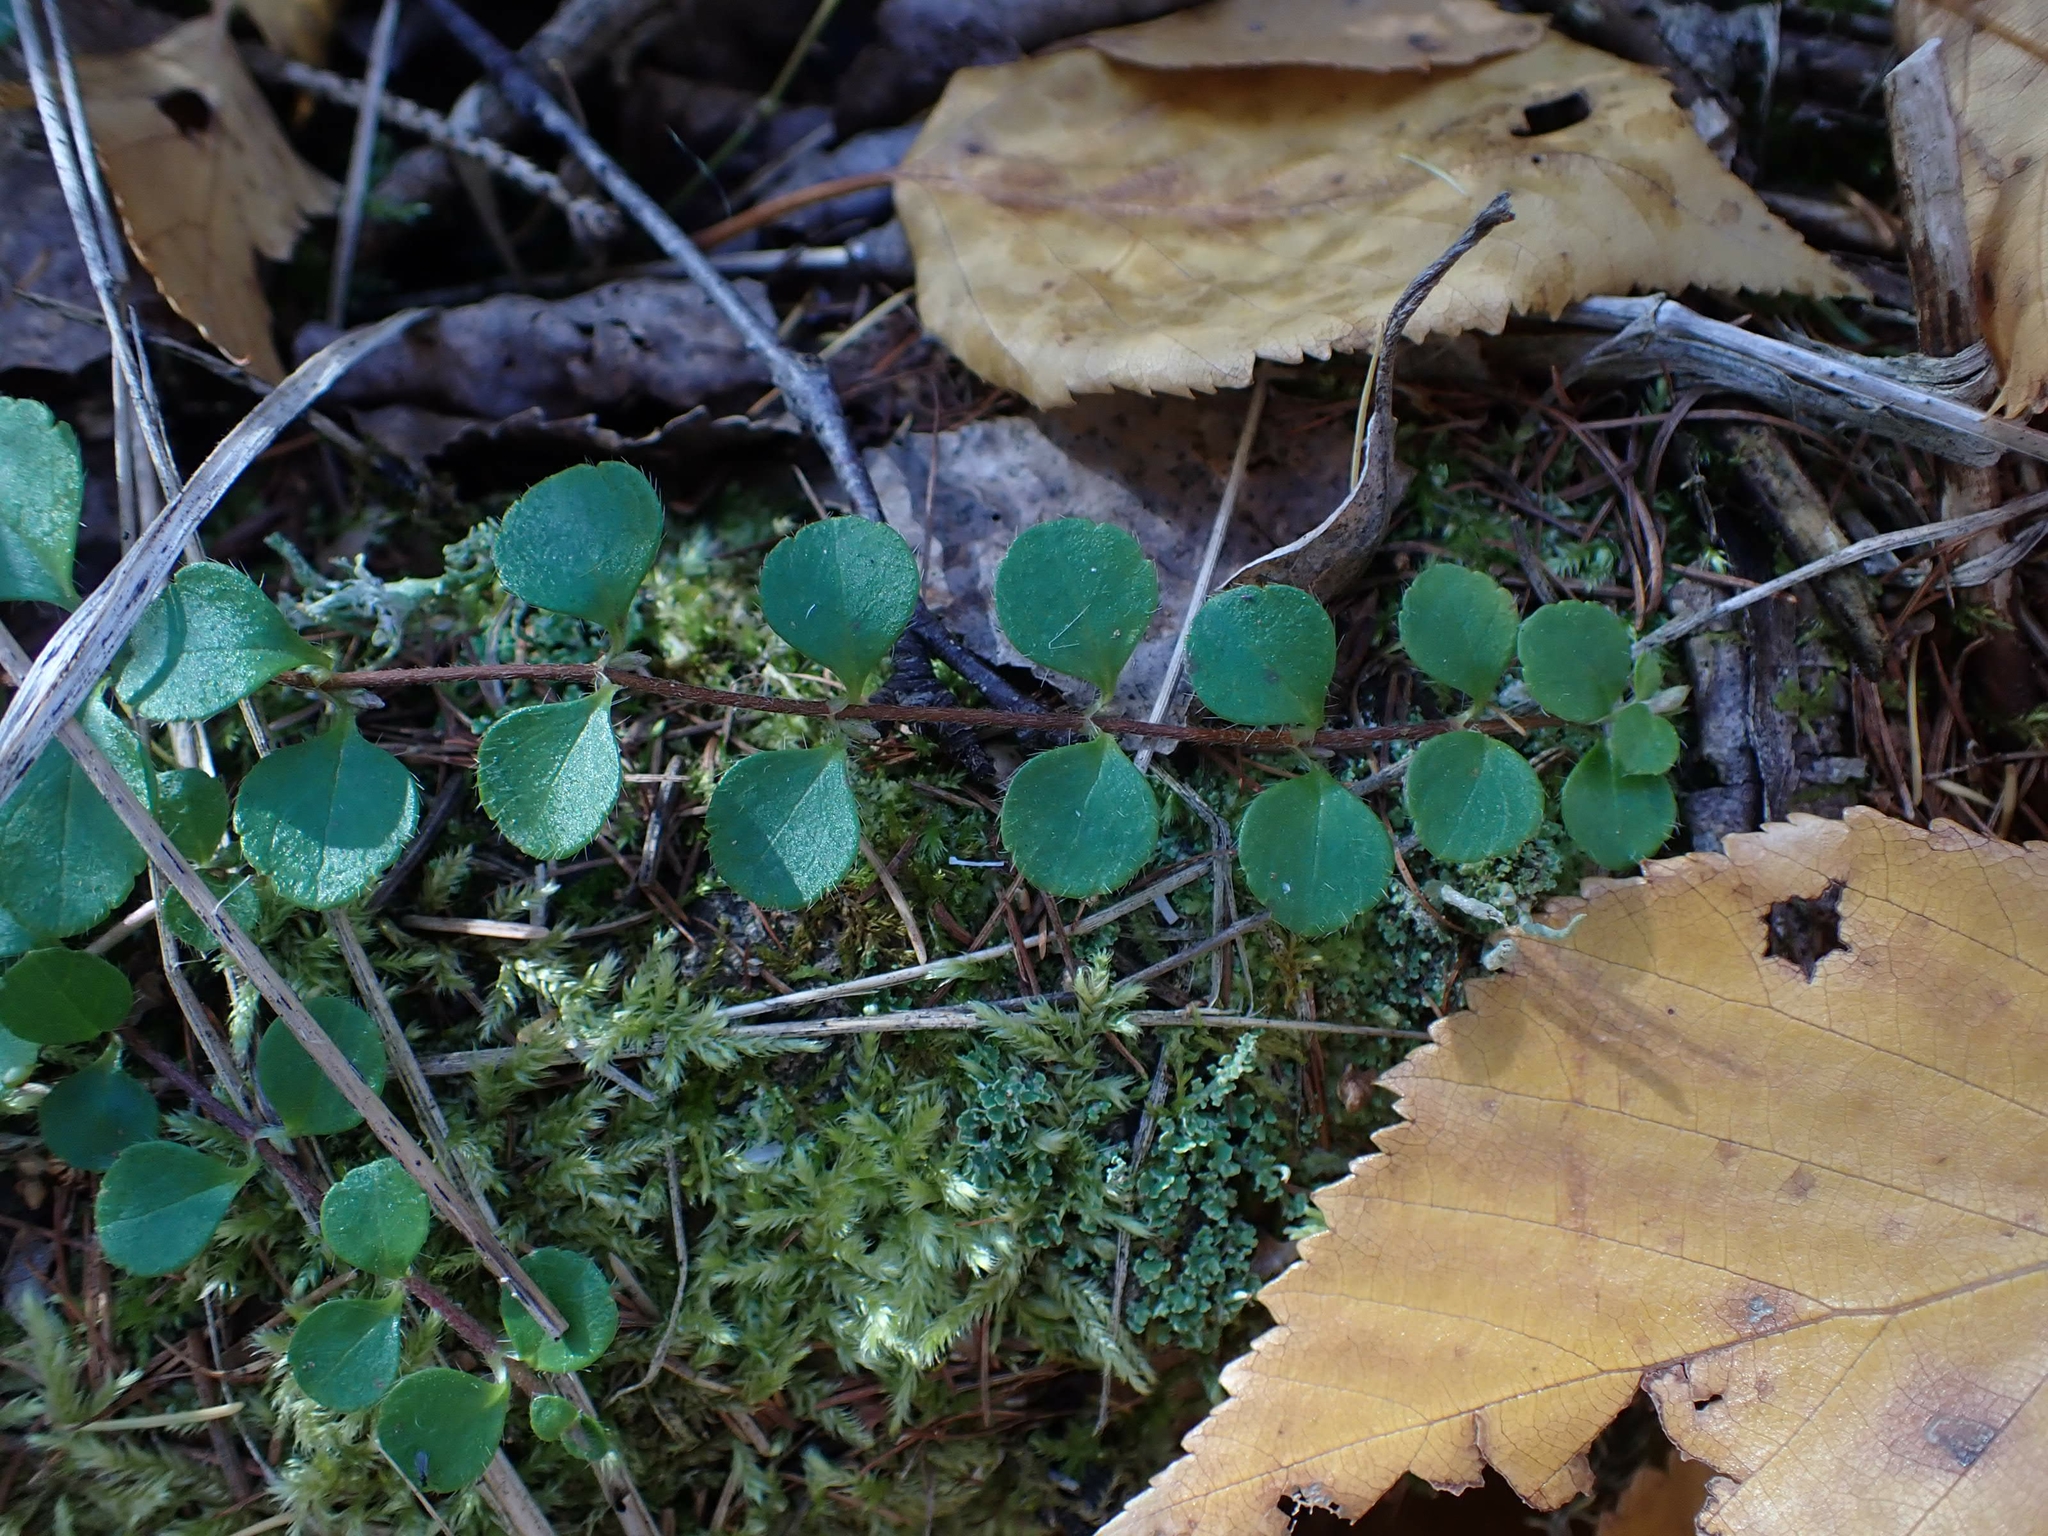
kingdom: Plantae
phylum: Tracheophyta
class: Magnoliopsida
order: Dipsacales
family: Caprifoliaceae
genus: Linnaea
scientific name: Linnaea borealis
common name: Twinflower
